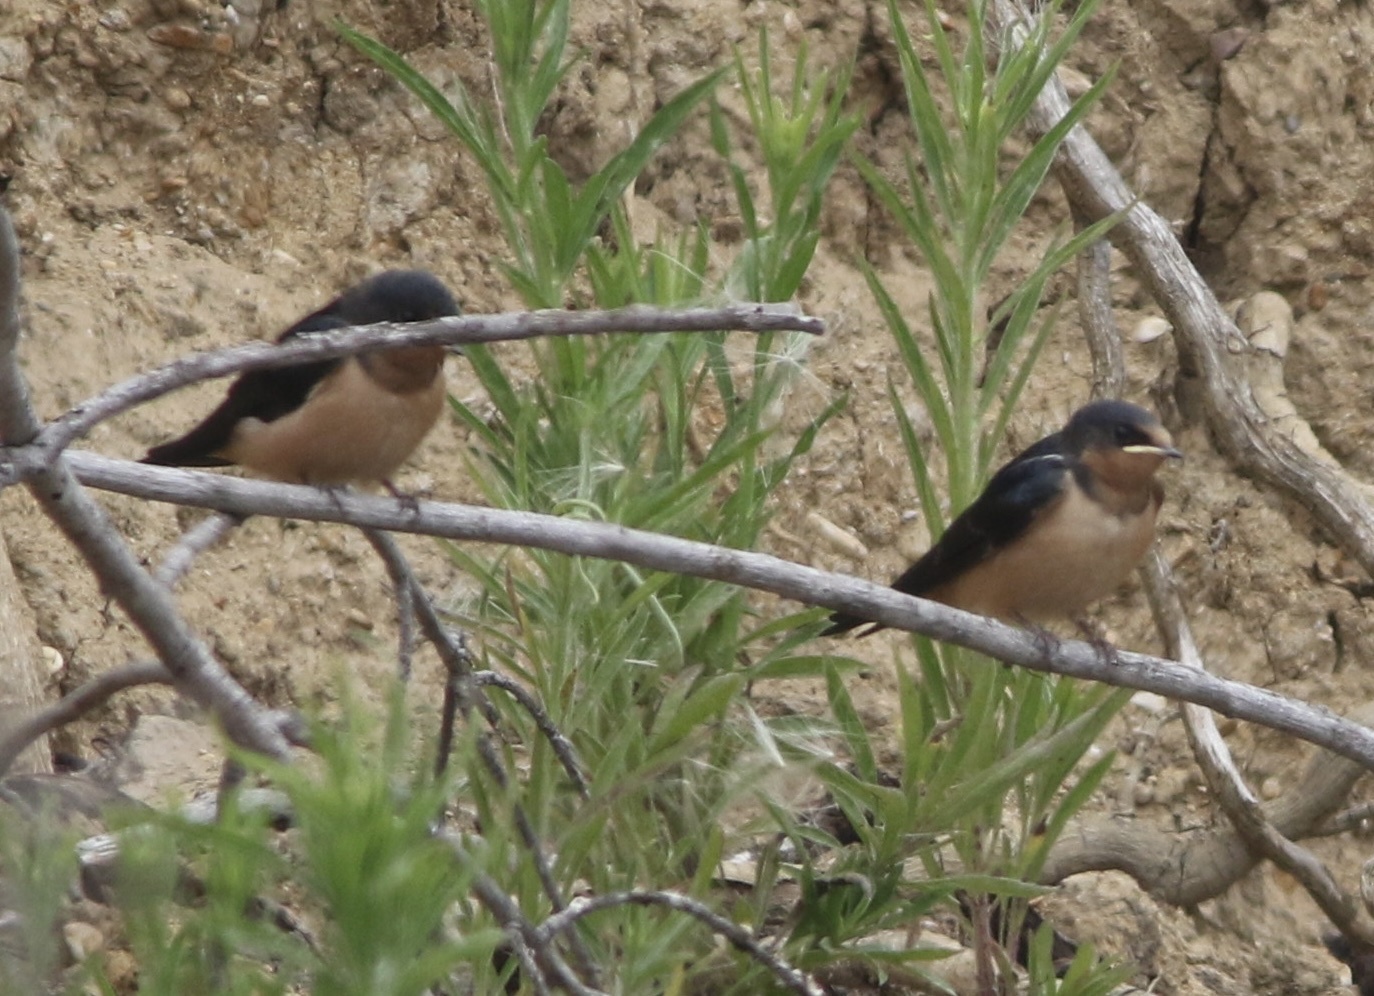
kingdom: Animalia
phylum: Chordata
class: Aves
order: Passeriformes
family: Hirundinidae
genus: Hirundo
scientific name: Hirundo rustica
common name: Barn swallow
